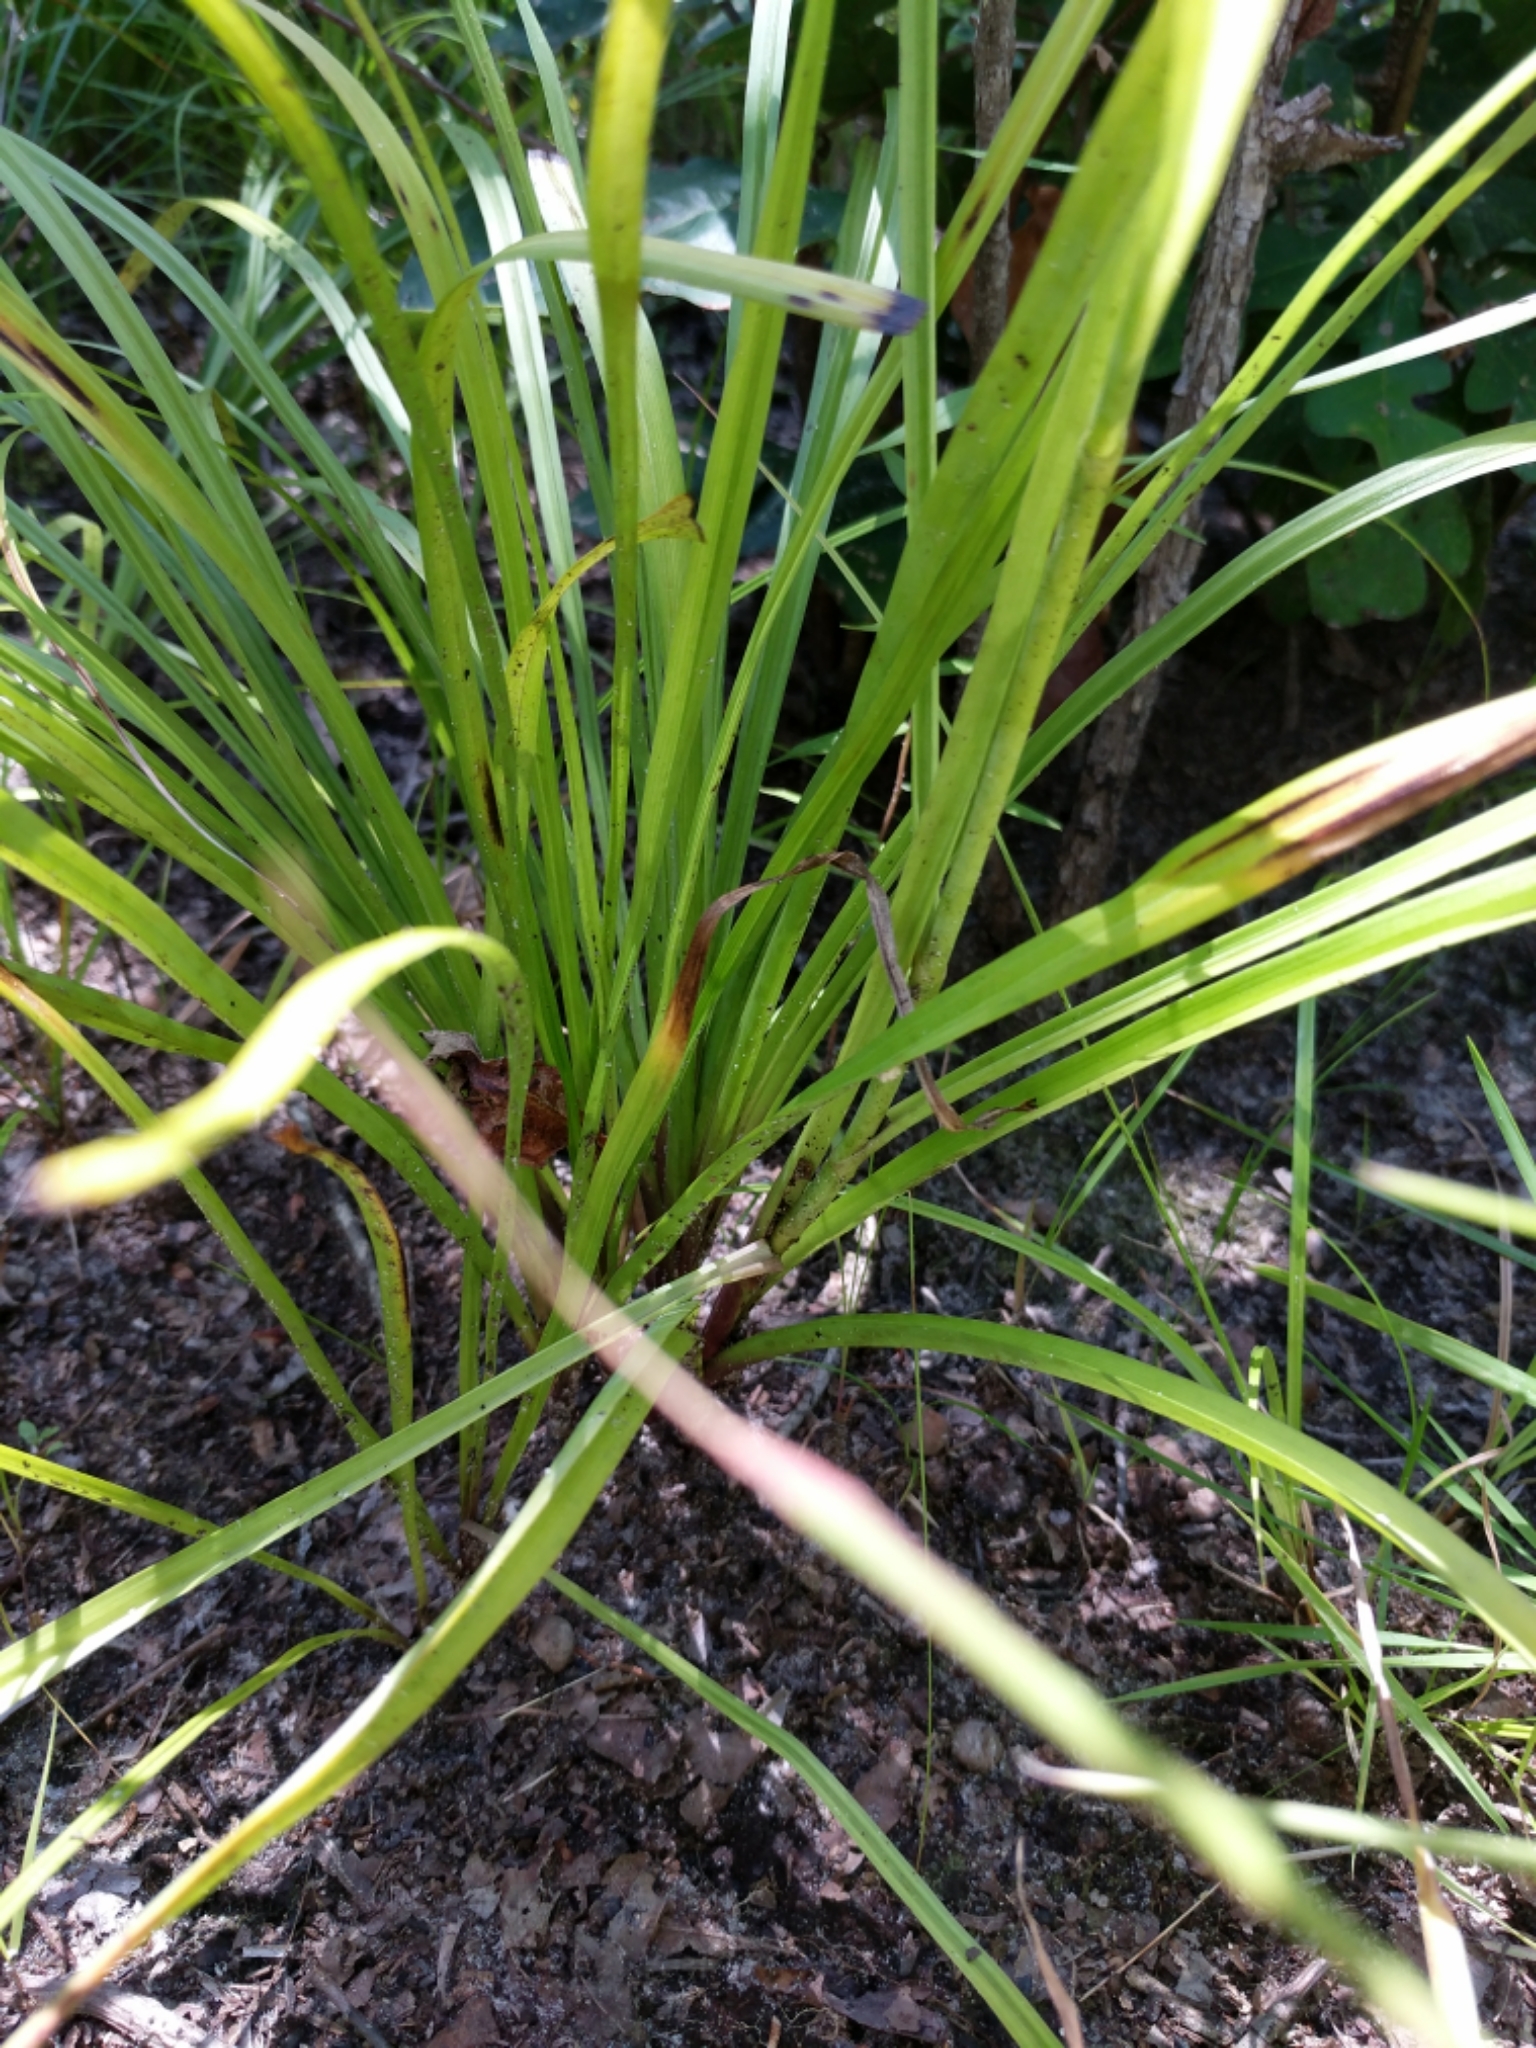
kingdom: Plantae
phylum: Tracheophyta
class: Liliopsida
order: Liliales
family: Melanthiaceae
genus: Stenanthium
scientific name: Stenanthium gramineum
